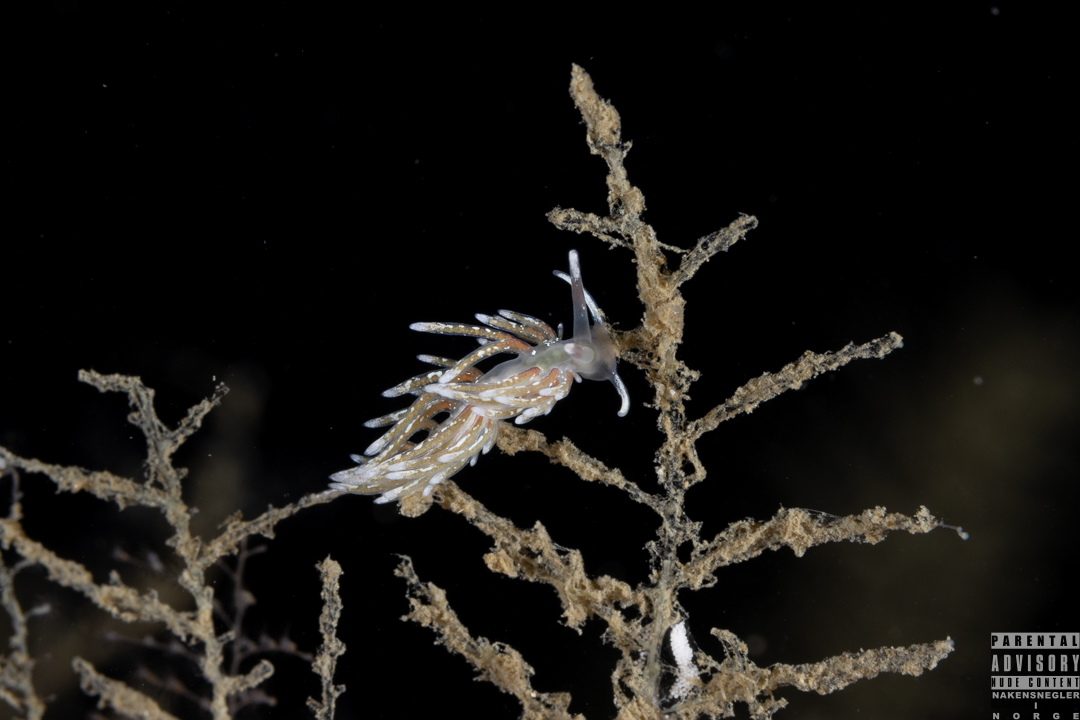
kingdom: Animalia
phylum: Mollusca
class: Gastropoda
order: Nudibranchia
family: Trinchesiidae
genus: Rubramoena
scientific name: Rubramoena rubescens
